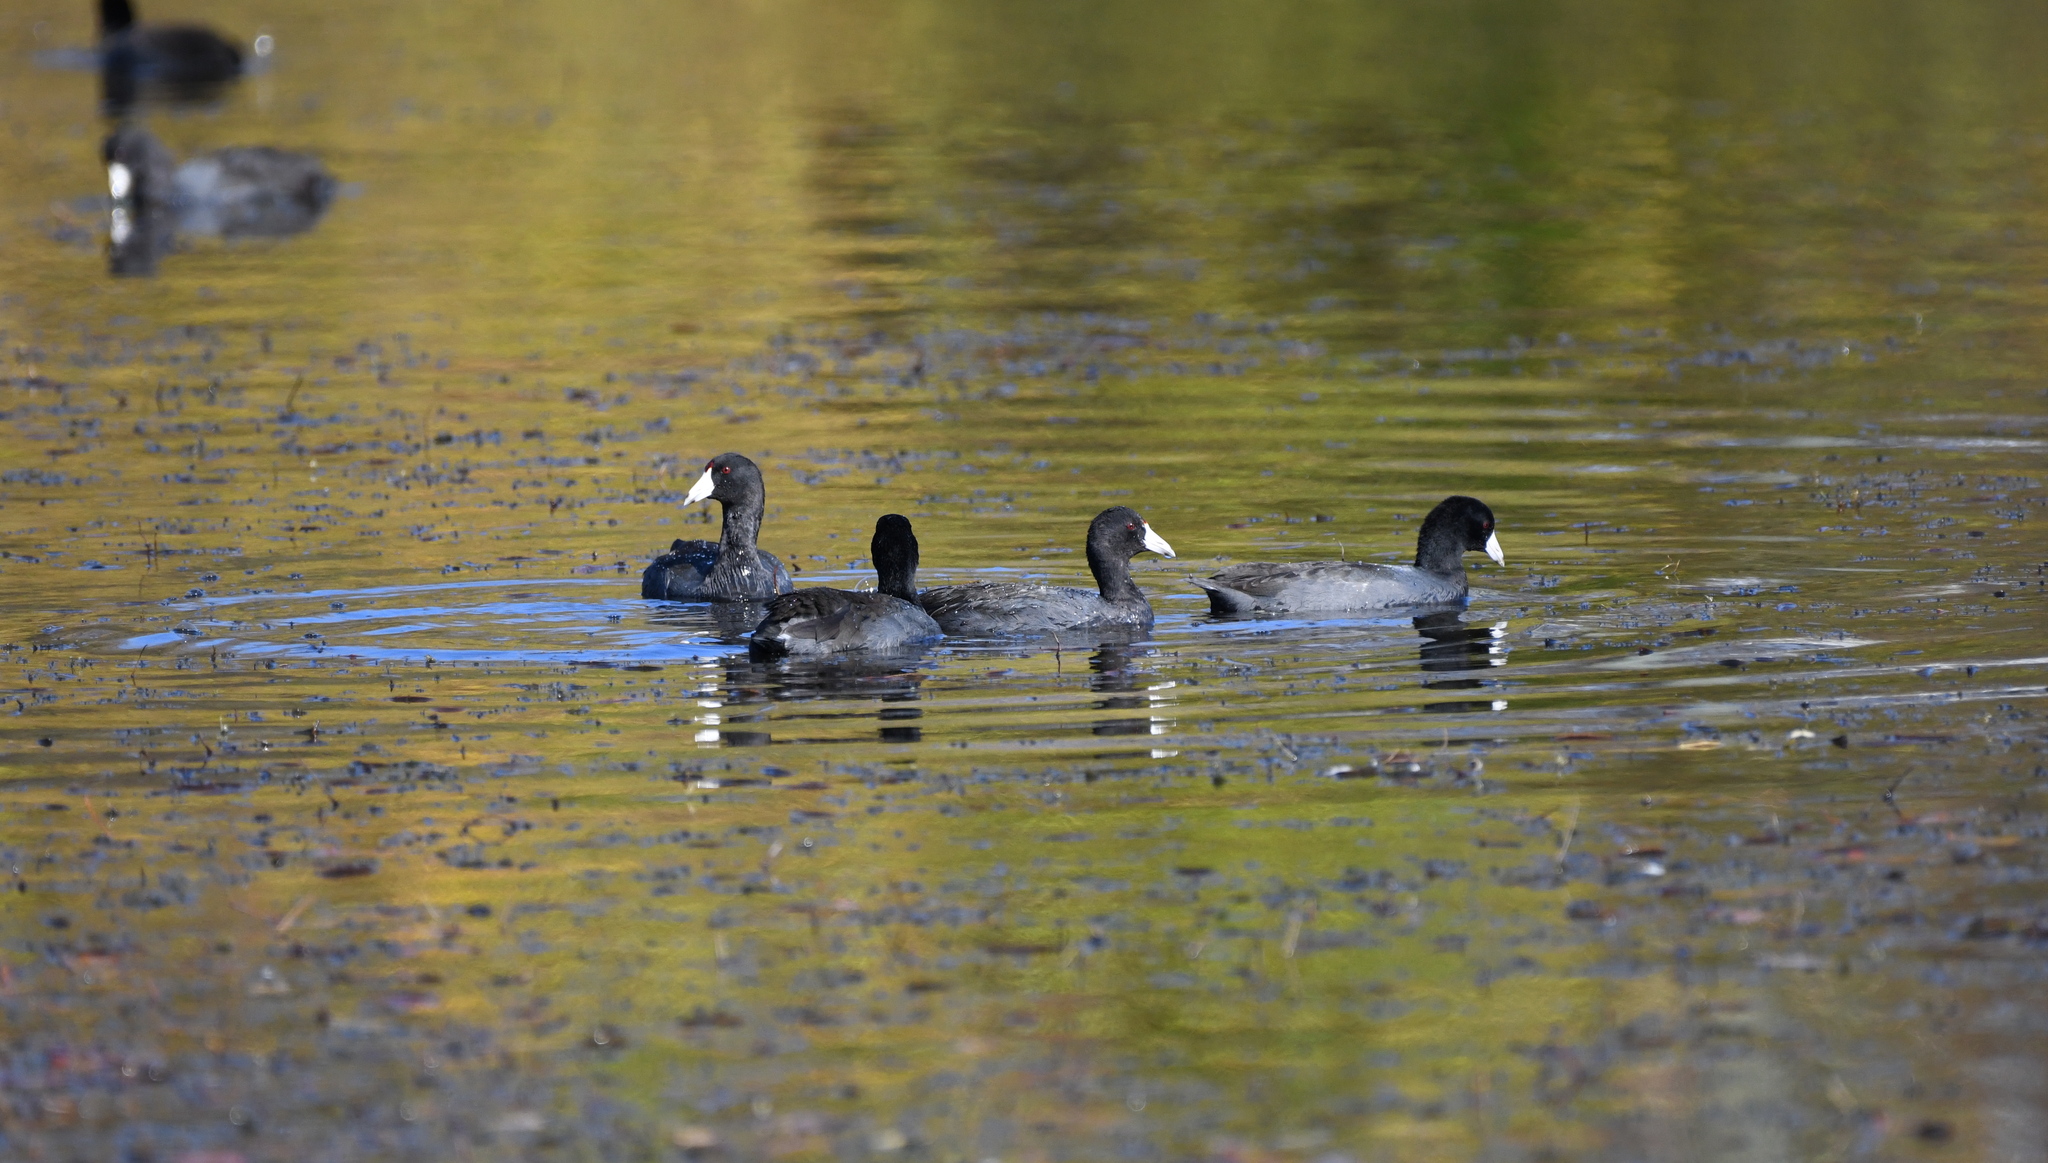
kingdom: Animalia
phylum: Chordata
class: Aves
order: Gruiformes
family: Rallidae
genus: Fulica
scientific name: Fulica americana
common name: American coot
